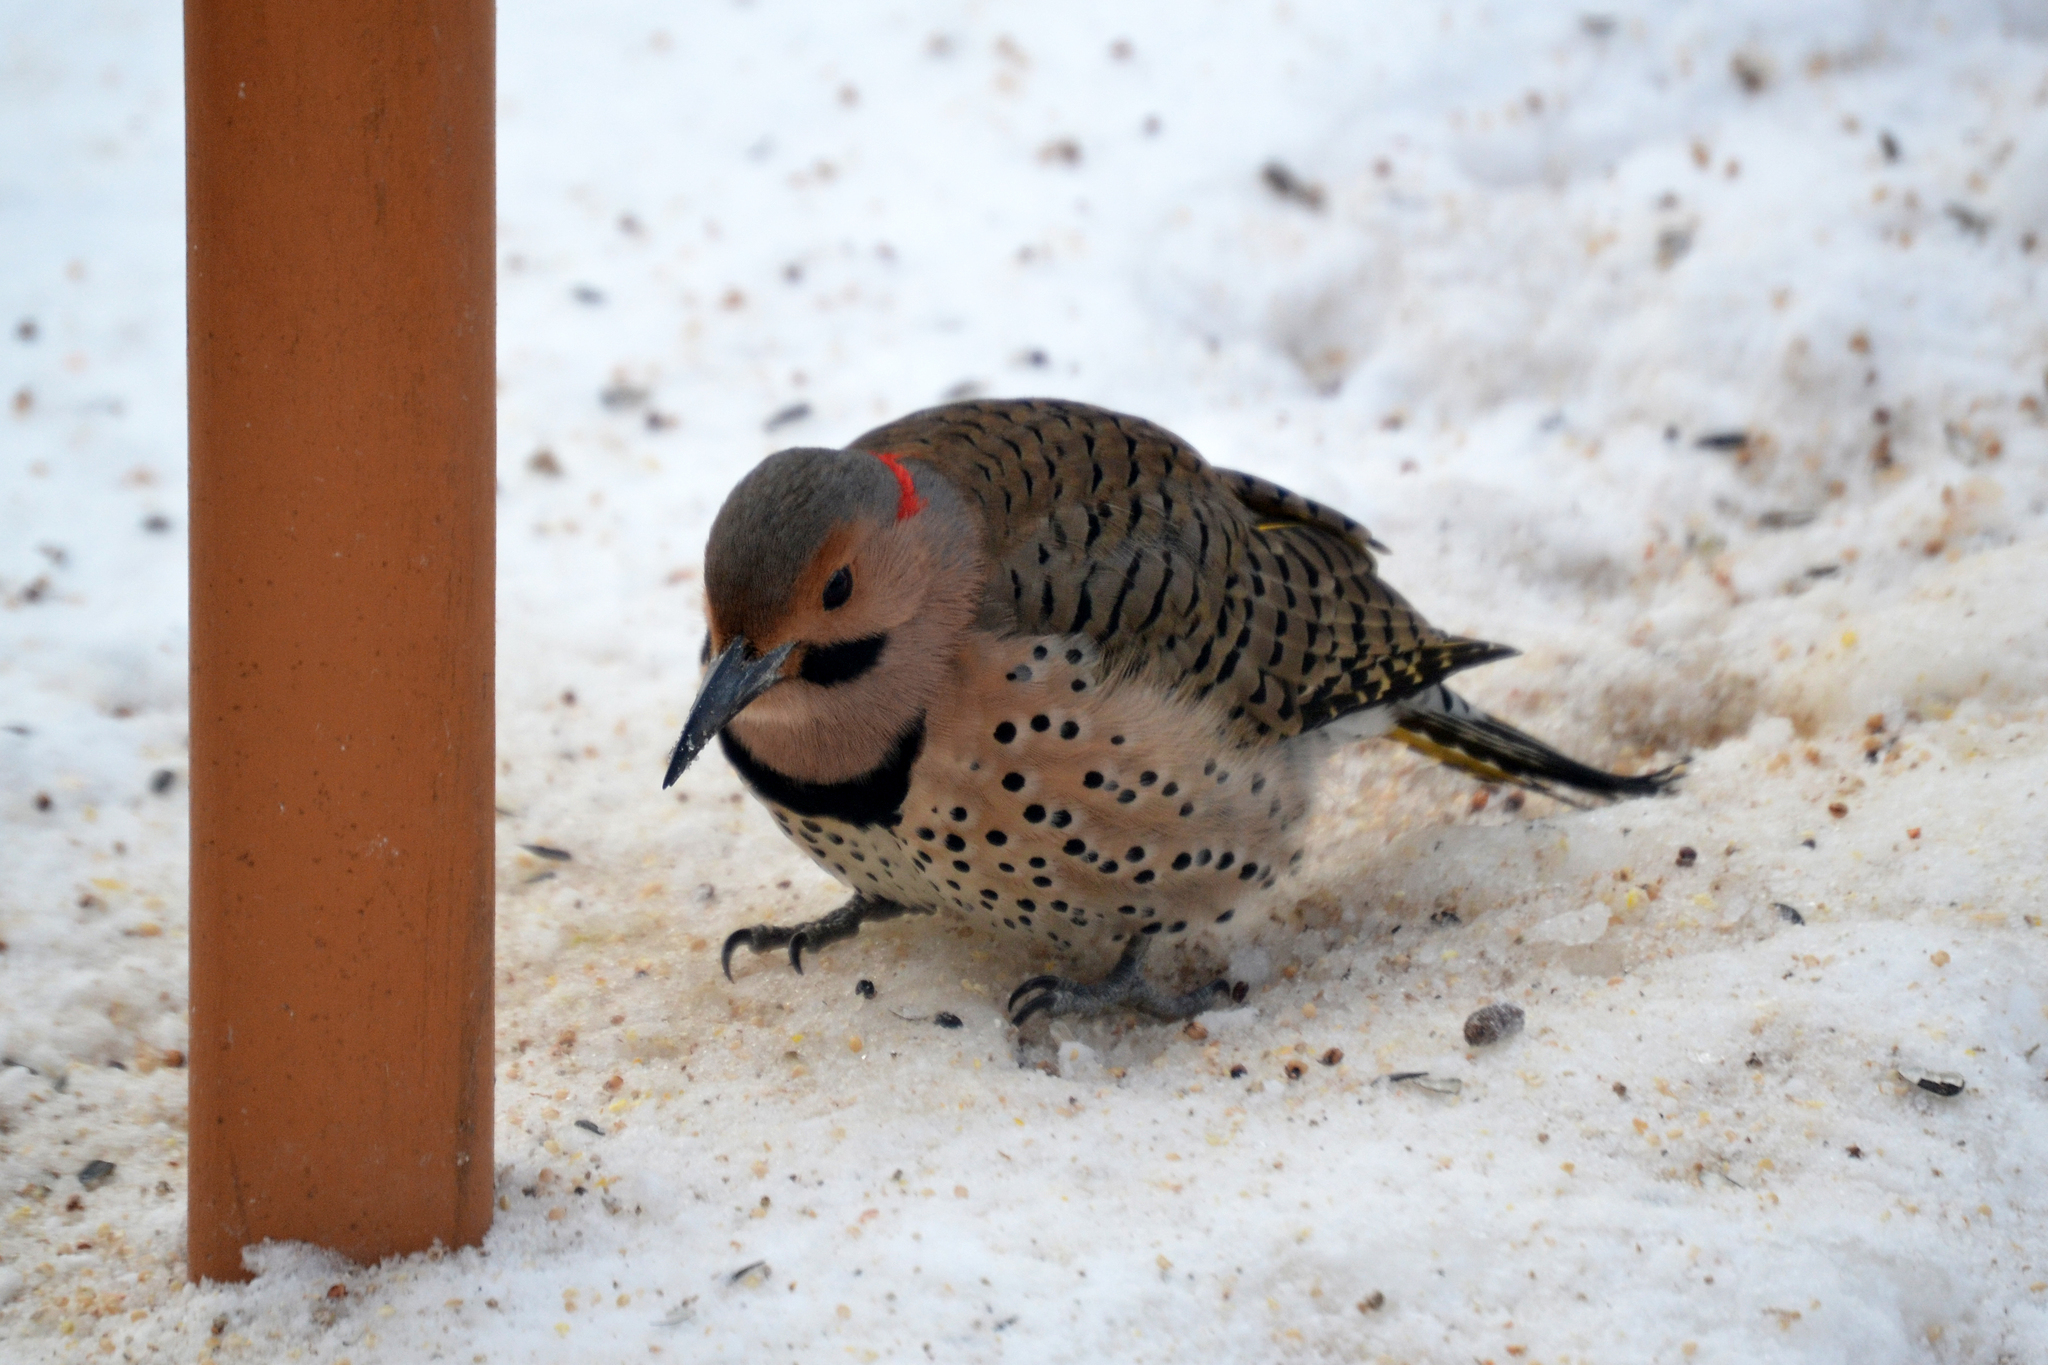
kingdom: Animalia
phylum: Chordata
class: Aves
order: Piciformes
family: Picidae
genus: Colaptes
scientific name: Colaptes auratus
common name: Northern flicker
